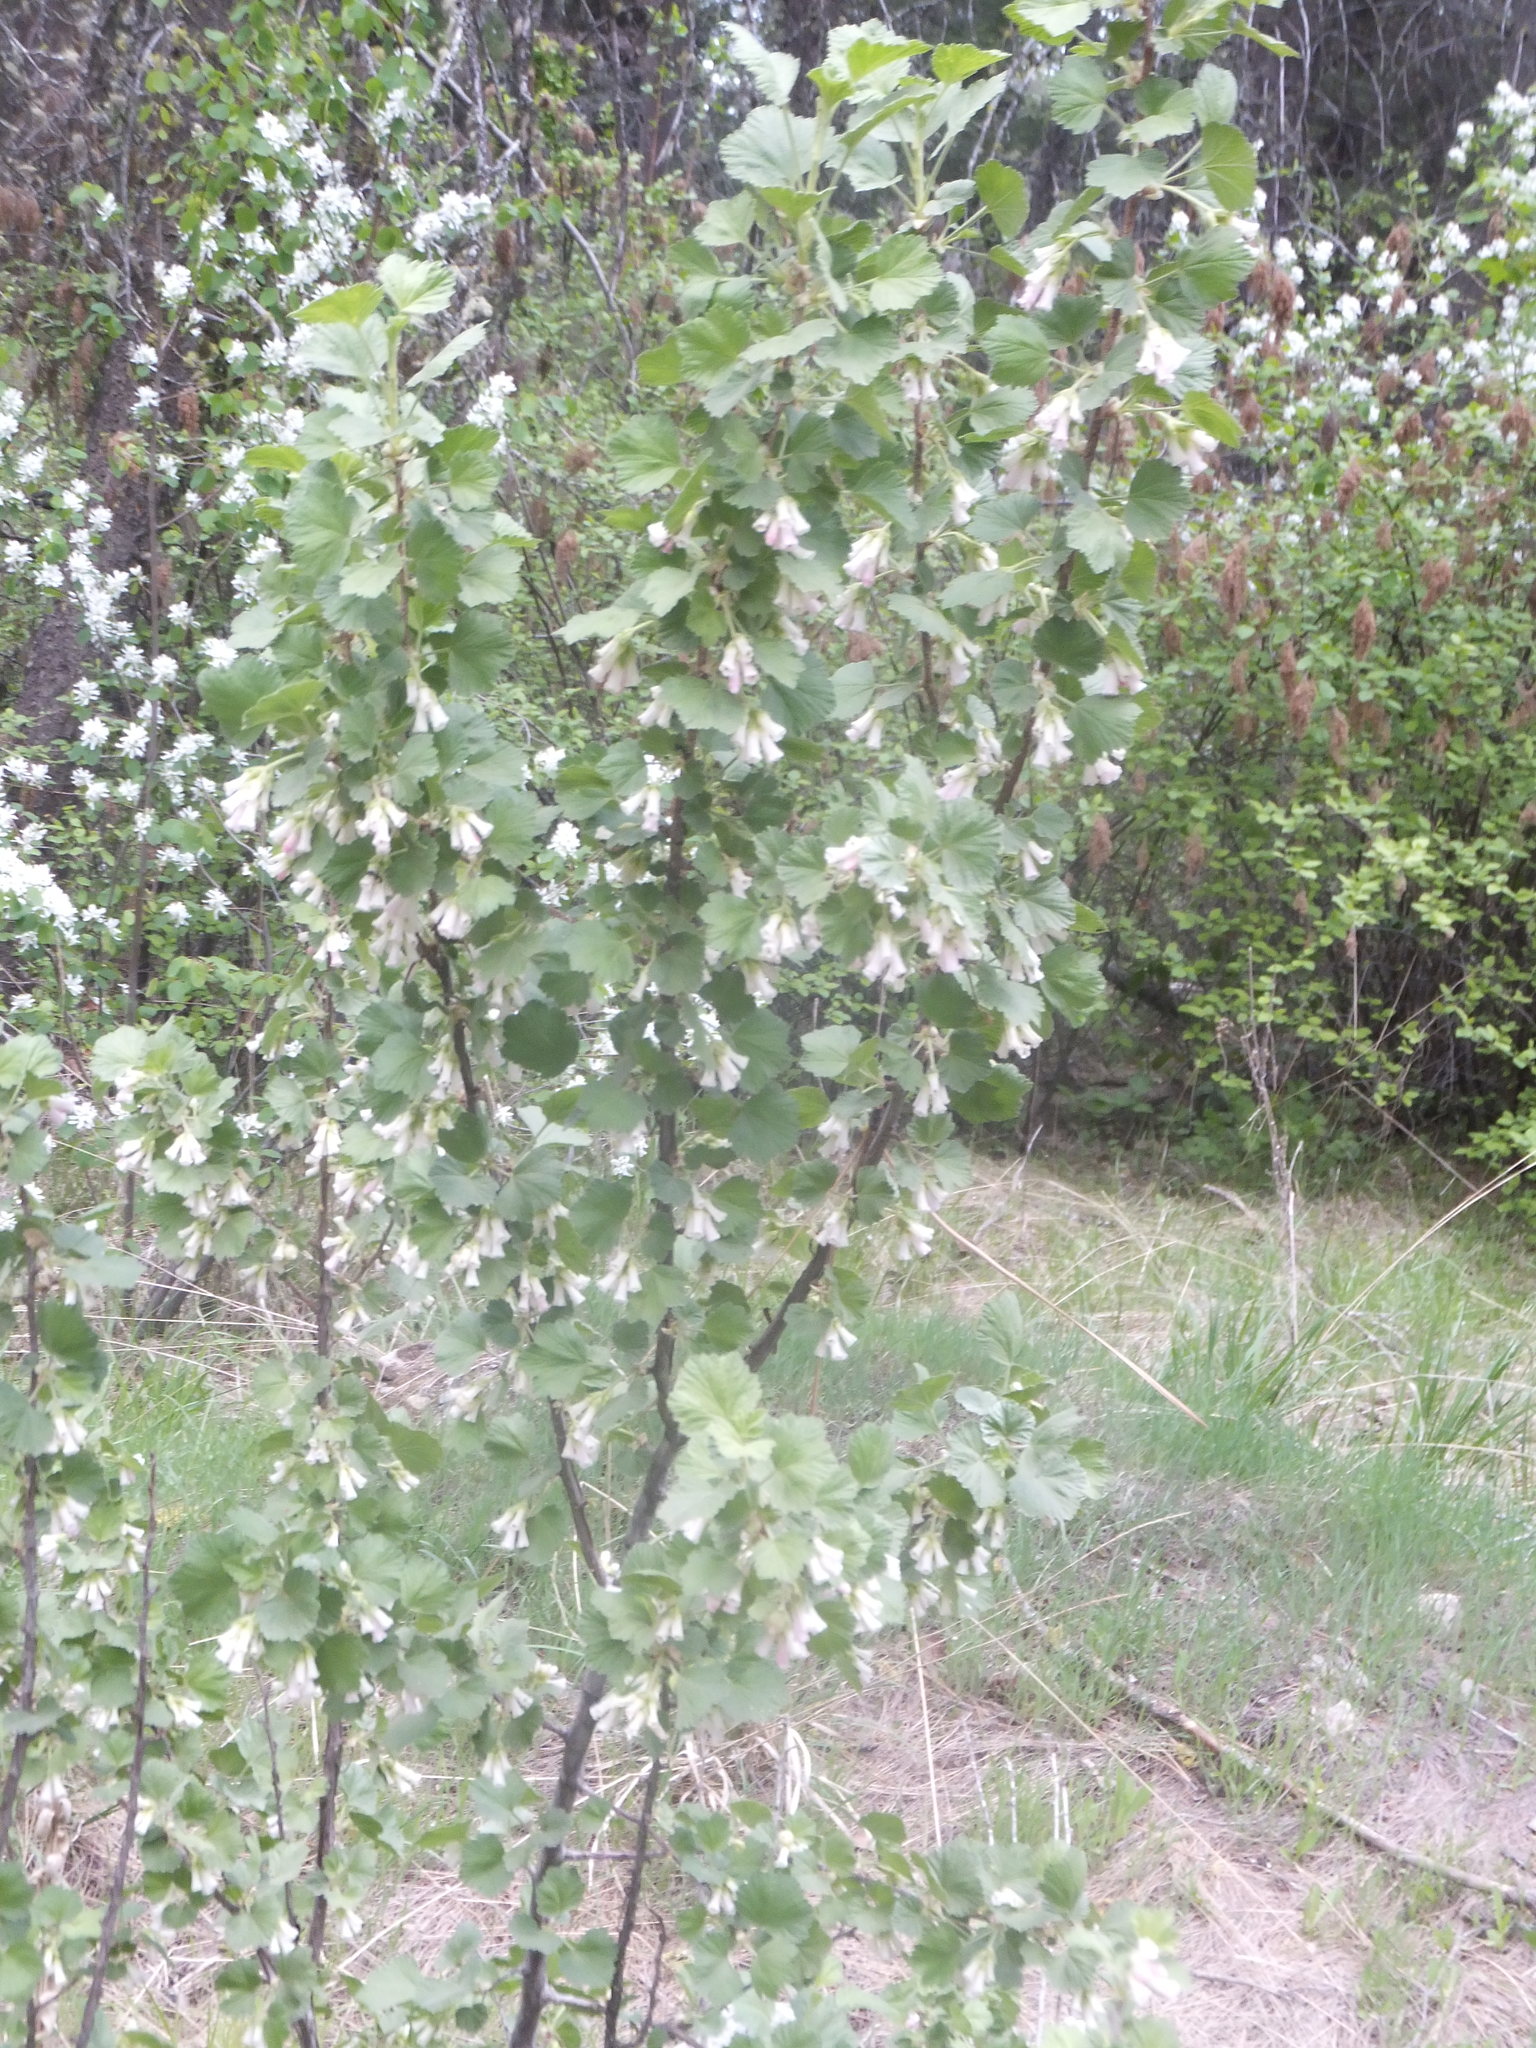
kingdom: Plantae
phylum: Tracheophyta
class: Magnoliopsida
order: Saxifragales
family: Grossulariaceae
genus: Ribes
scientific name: Ribes cereum
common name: Wax currant
